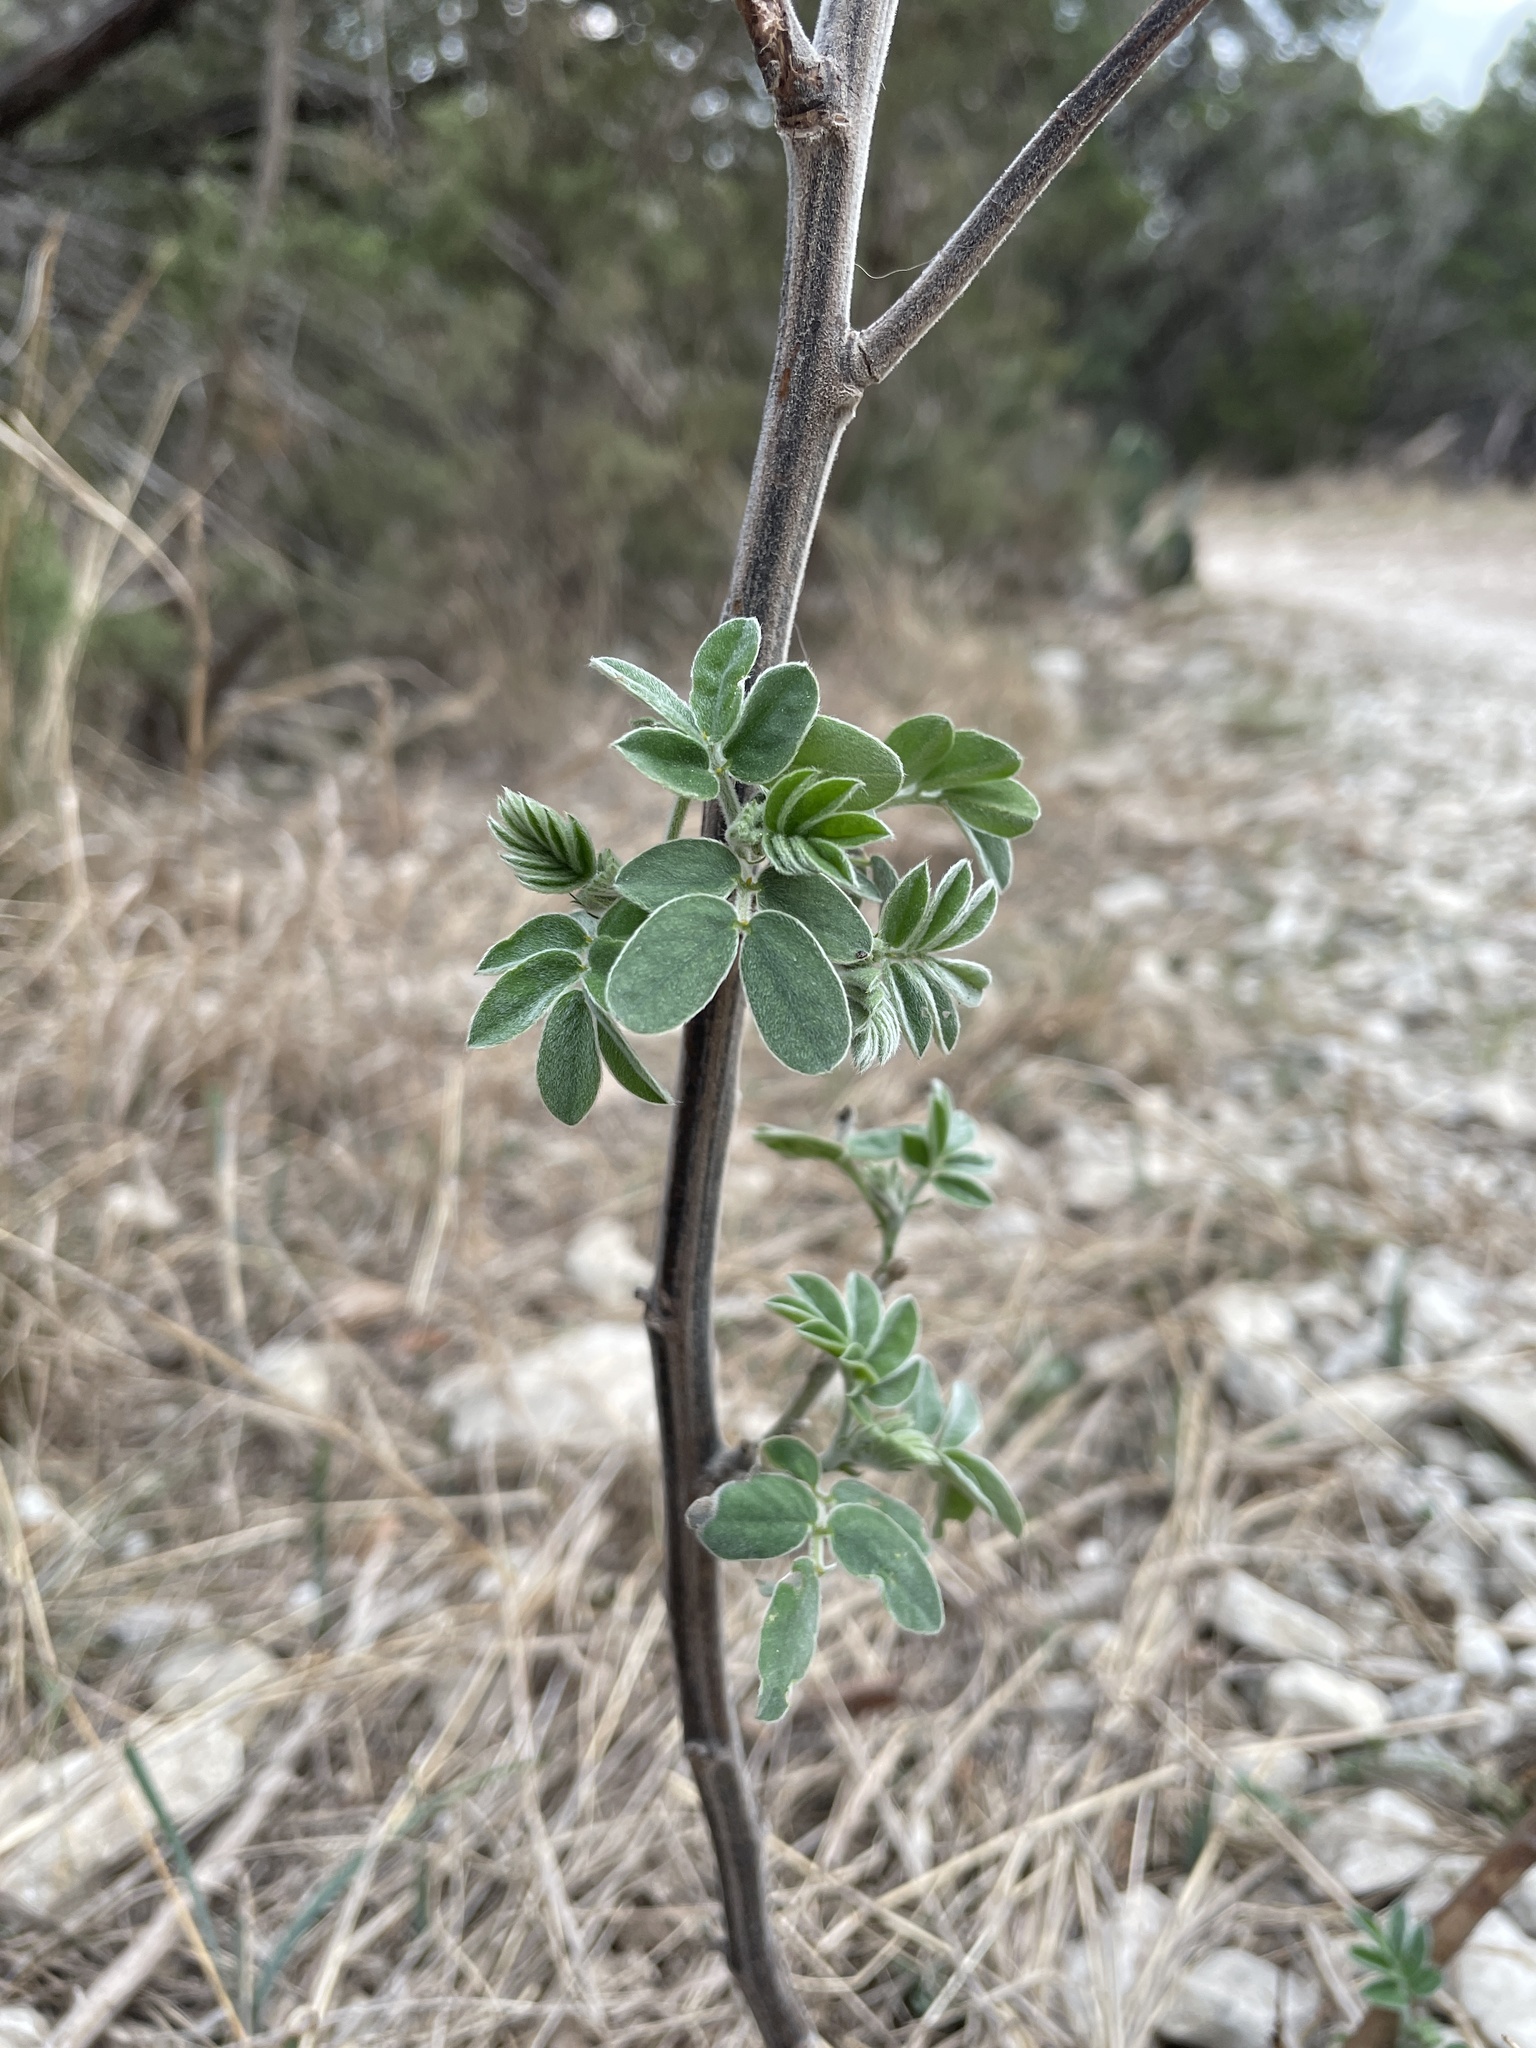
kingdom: Plantae
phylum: Tracheophyta
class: Magnoliopsida
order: Fabales
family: Fabaceae
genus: Senna
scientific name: Senna lindheimeriana
